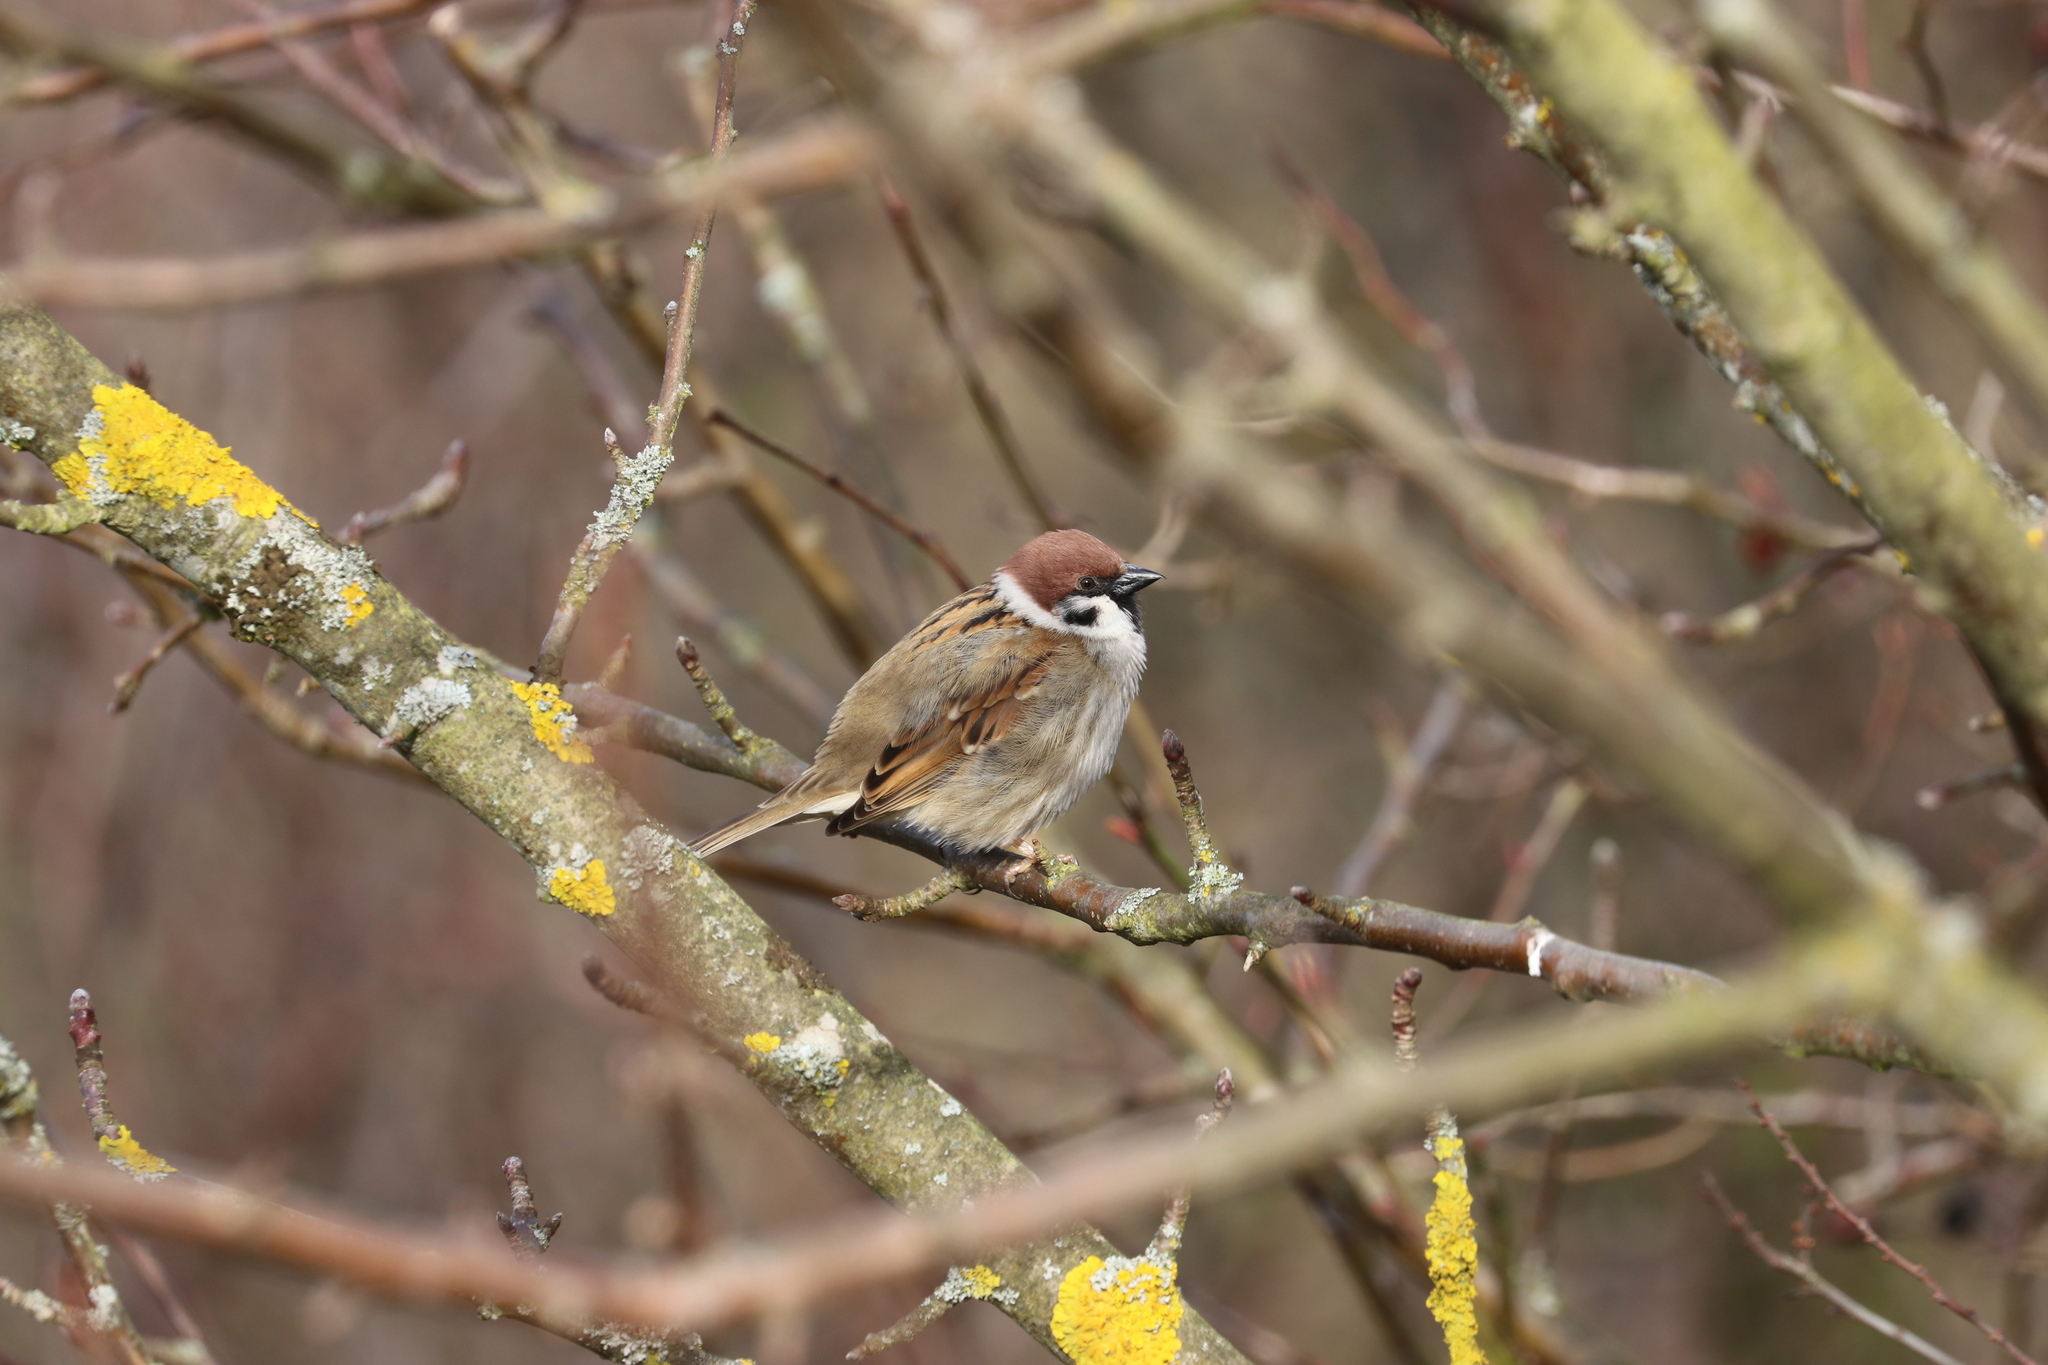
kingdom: Animalia
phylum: Chordata
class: Aves
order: Passeriformes
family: Passeridae
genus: Passer
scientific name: Passer montanus
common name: Eurasian tree sparrow
